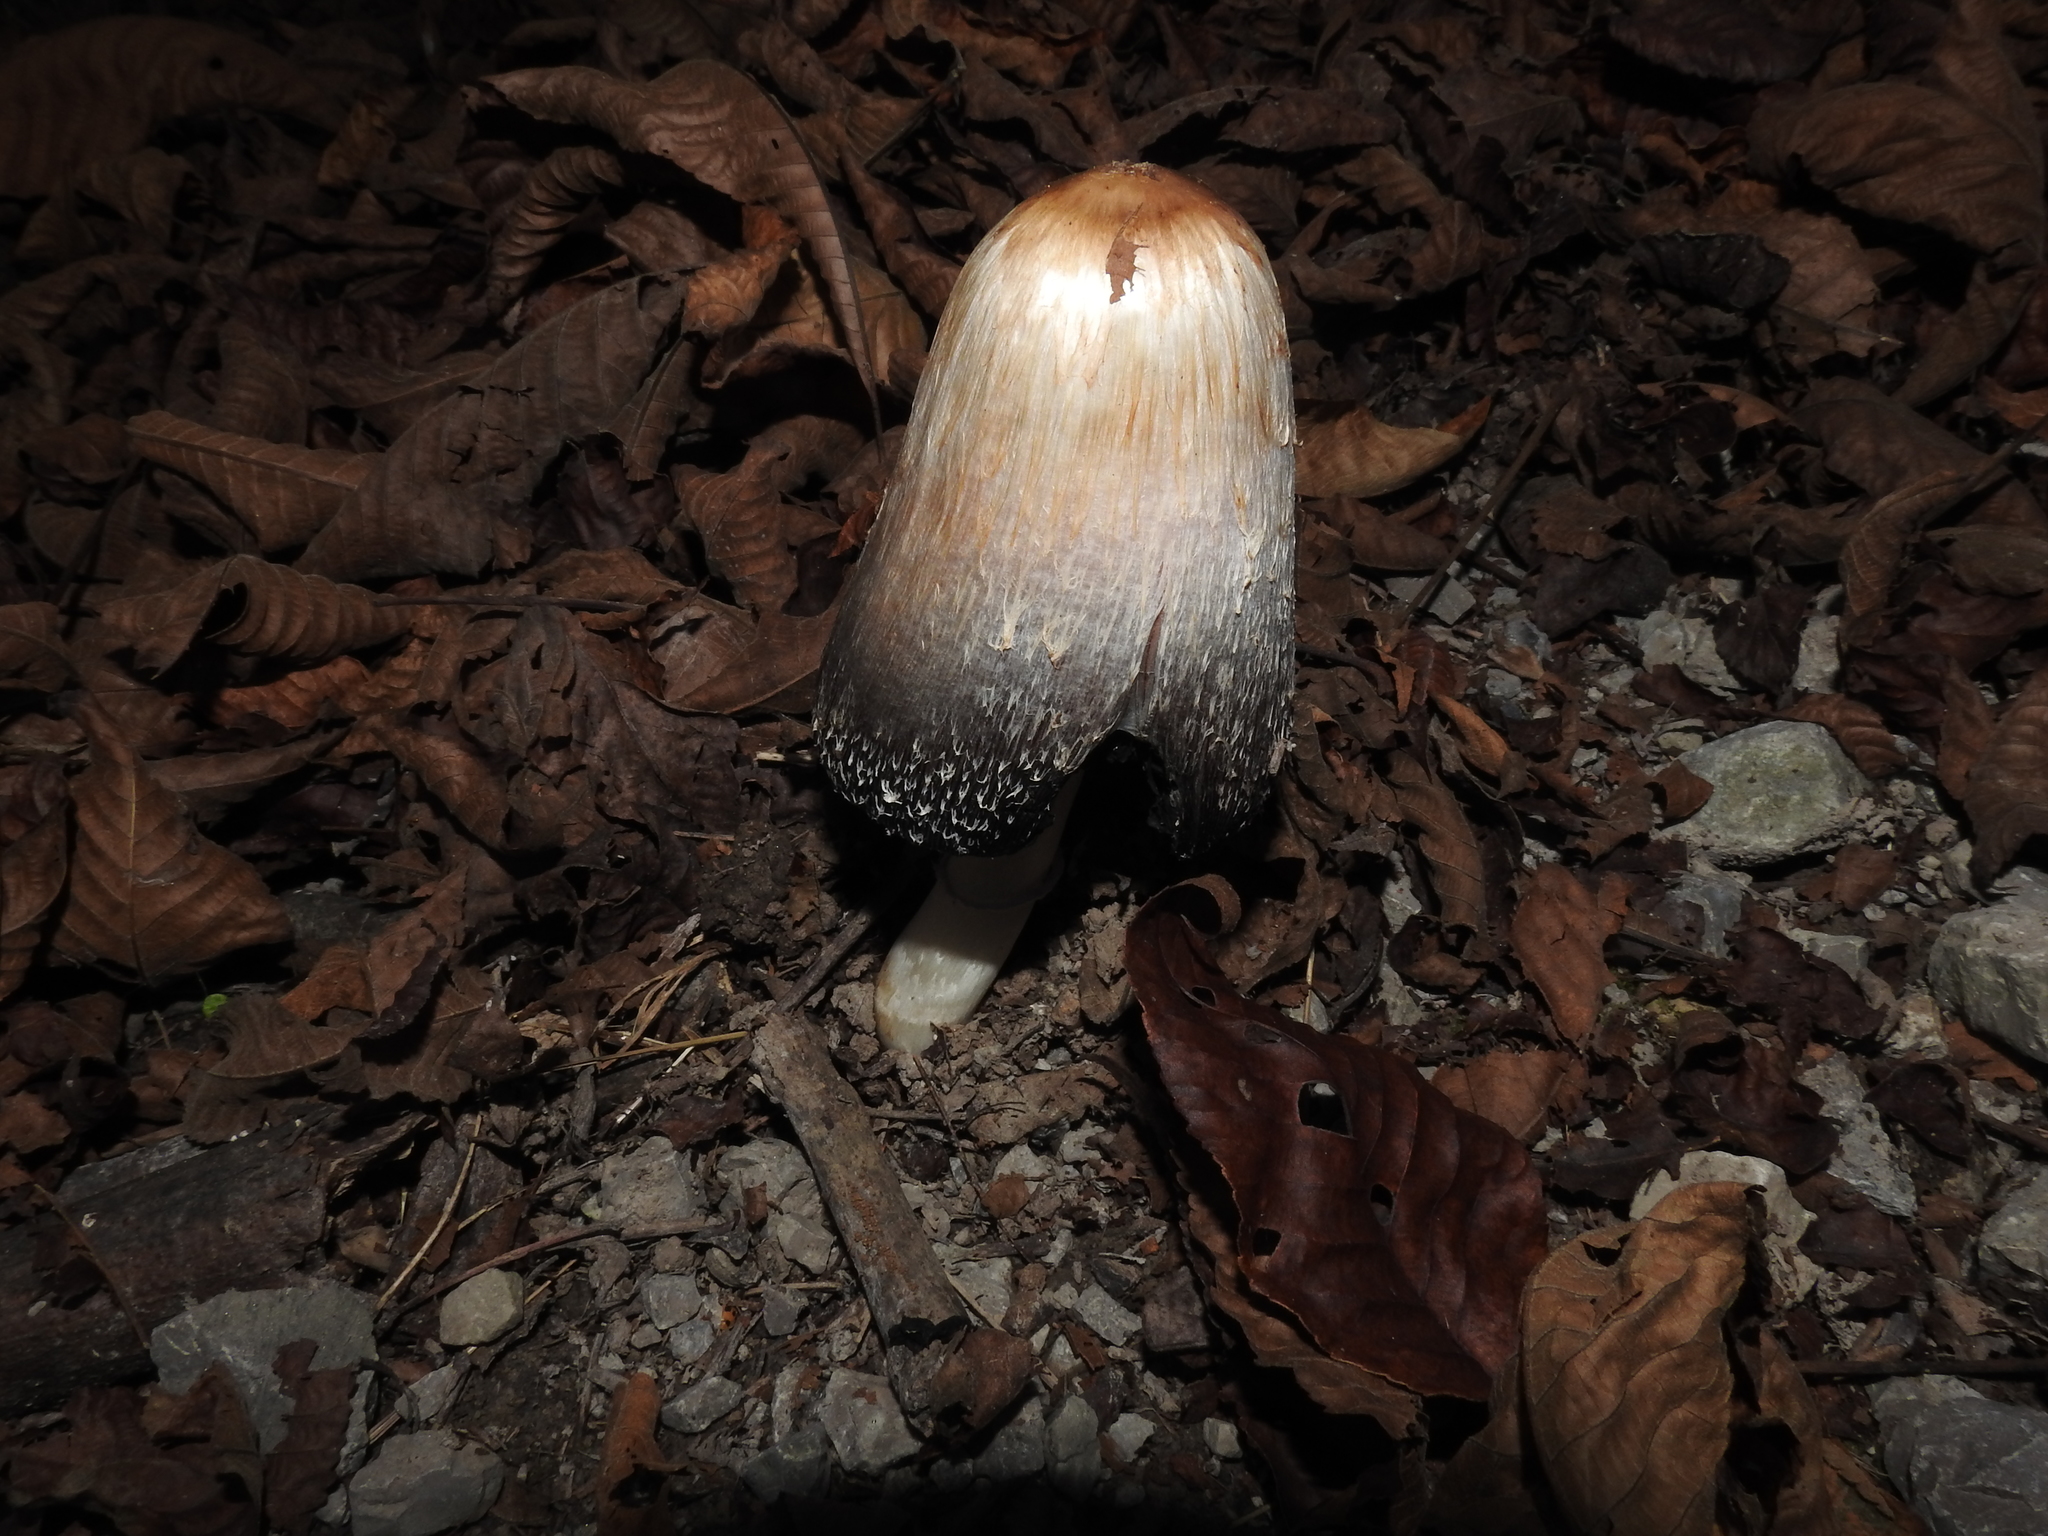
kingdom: Fungi
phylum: Basidiomycota
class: Agaricomycetes
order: Agaricales
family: Agaricaceae
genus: Coprinus
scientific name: Coprinus comatus
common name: Lawyer's wig
